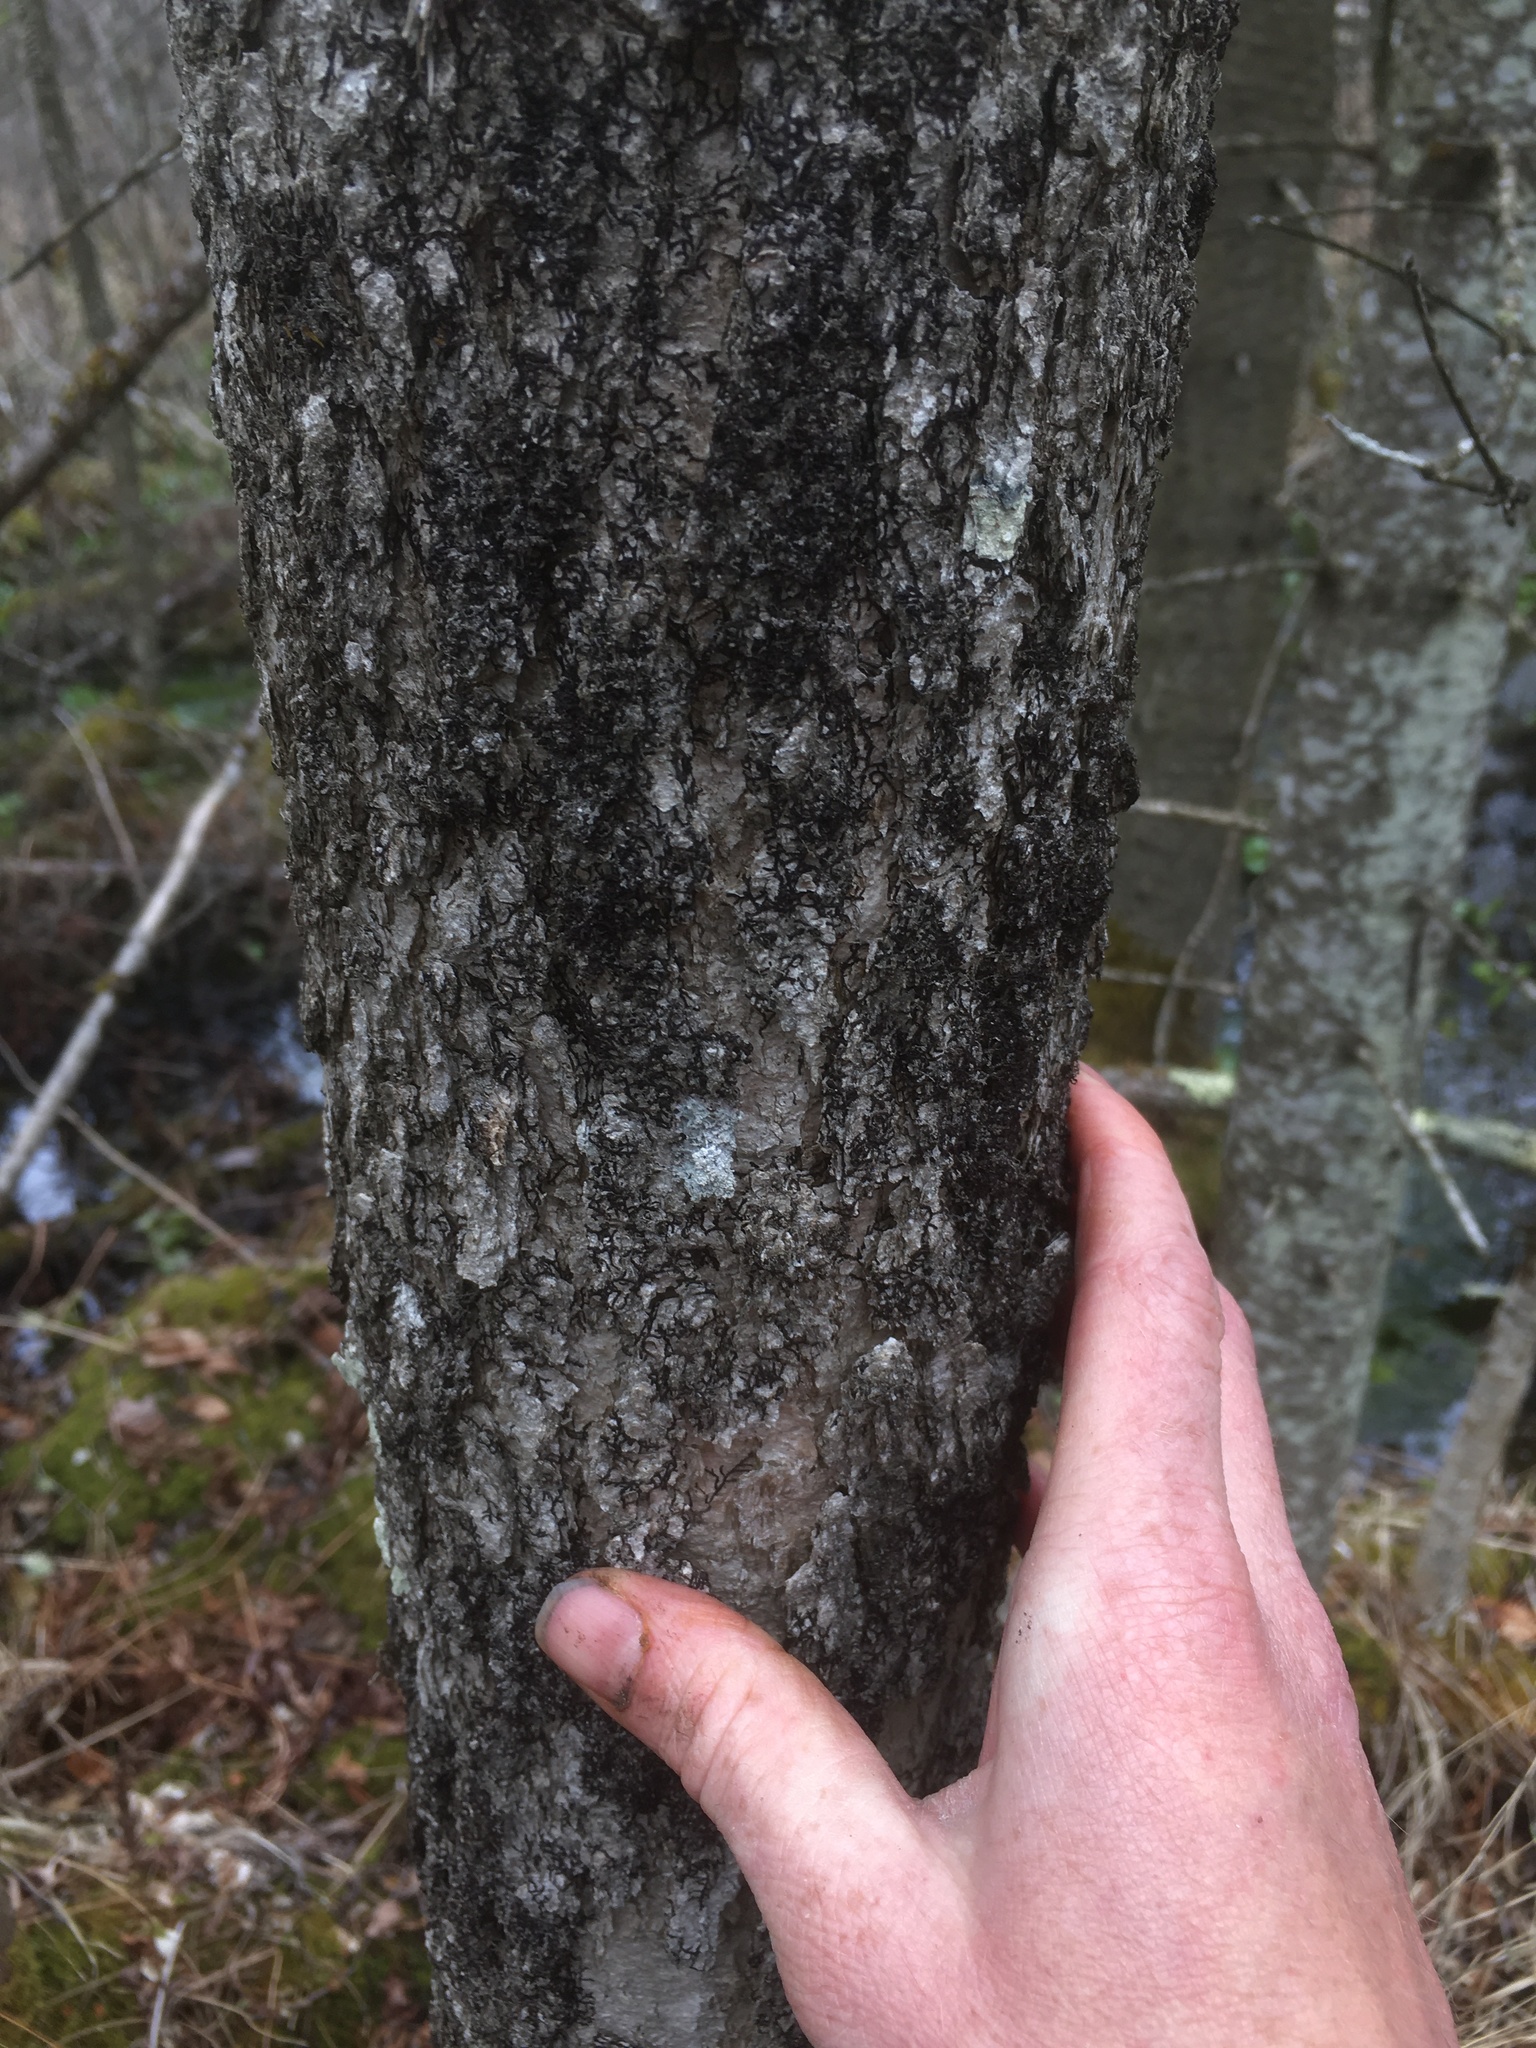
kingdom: Plantae
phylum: Tracheophyta
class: Magnoliopsida
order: Lamiales
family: Oleaceae
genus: Fraxinus
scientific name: Fraxinus nigra
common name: Black ash
